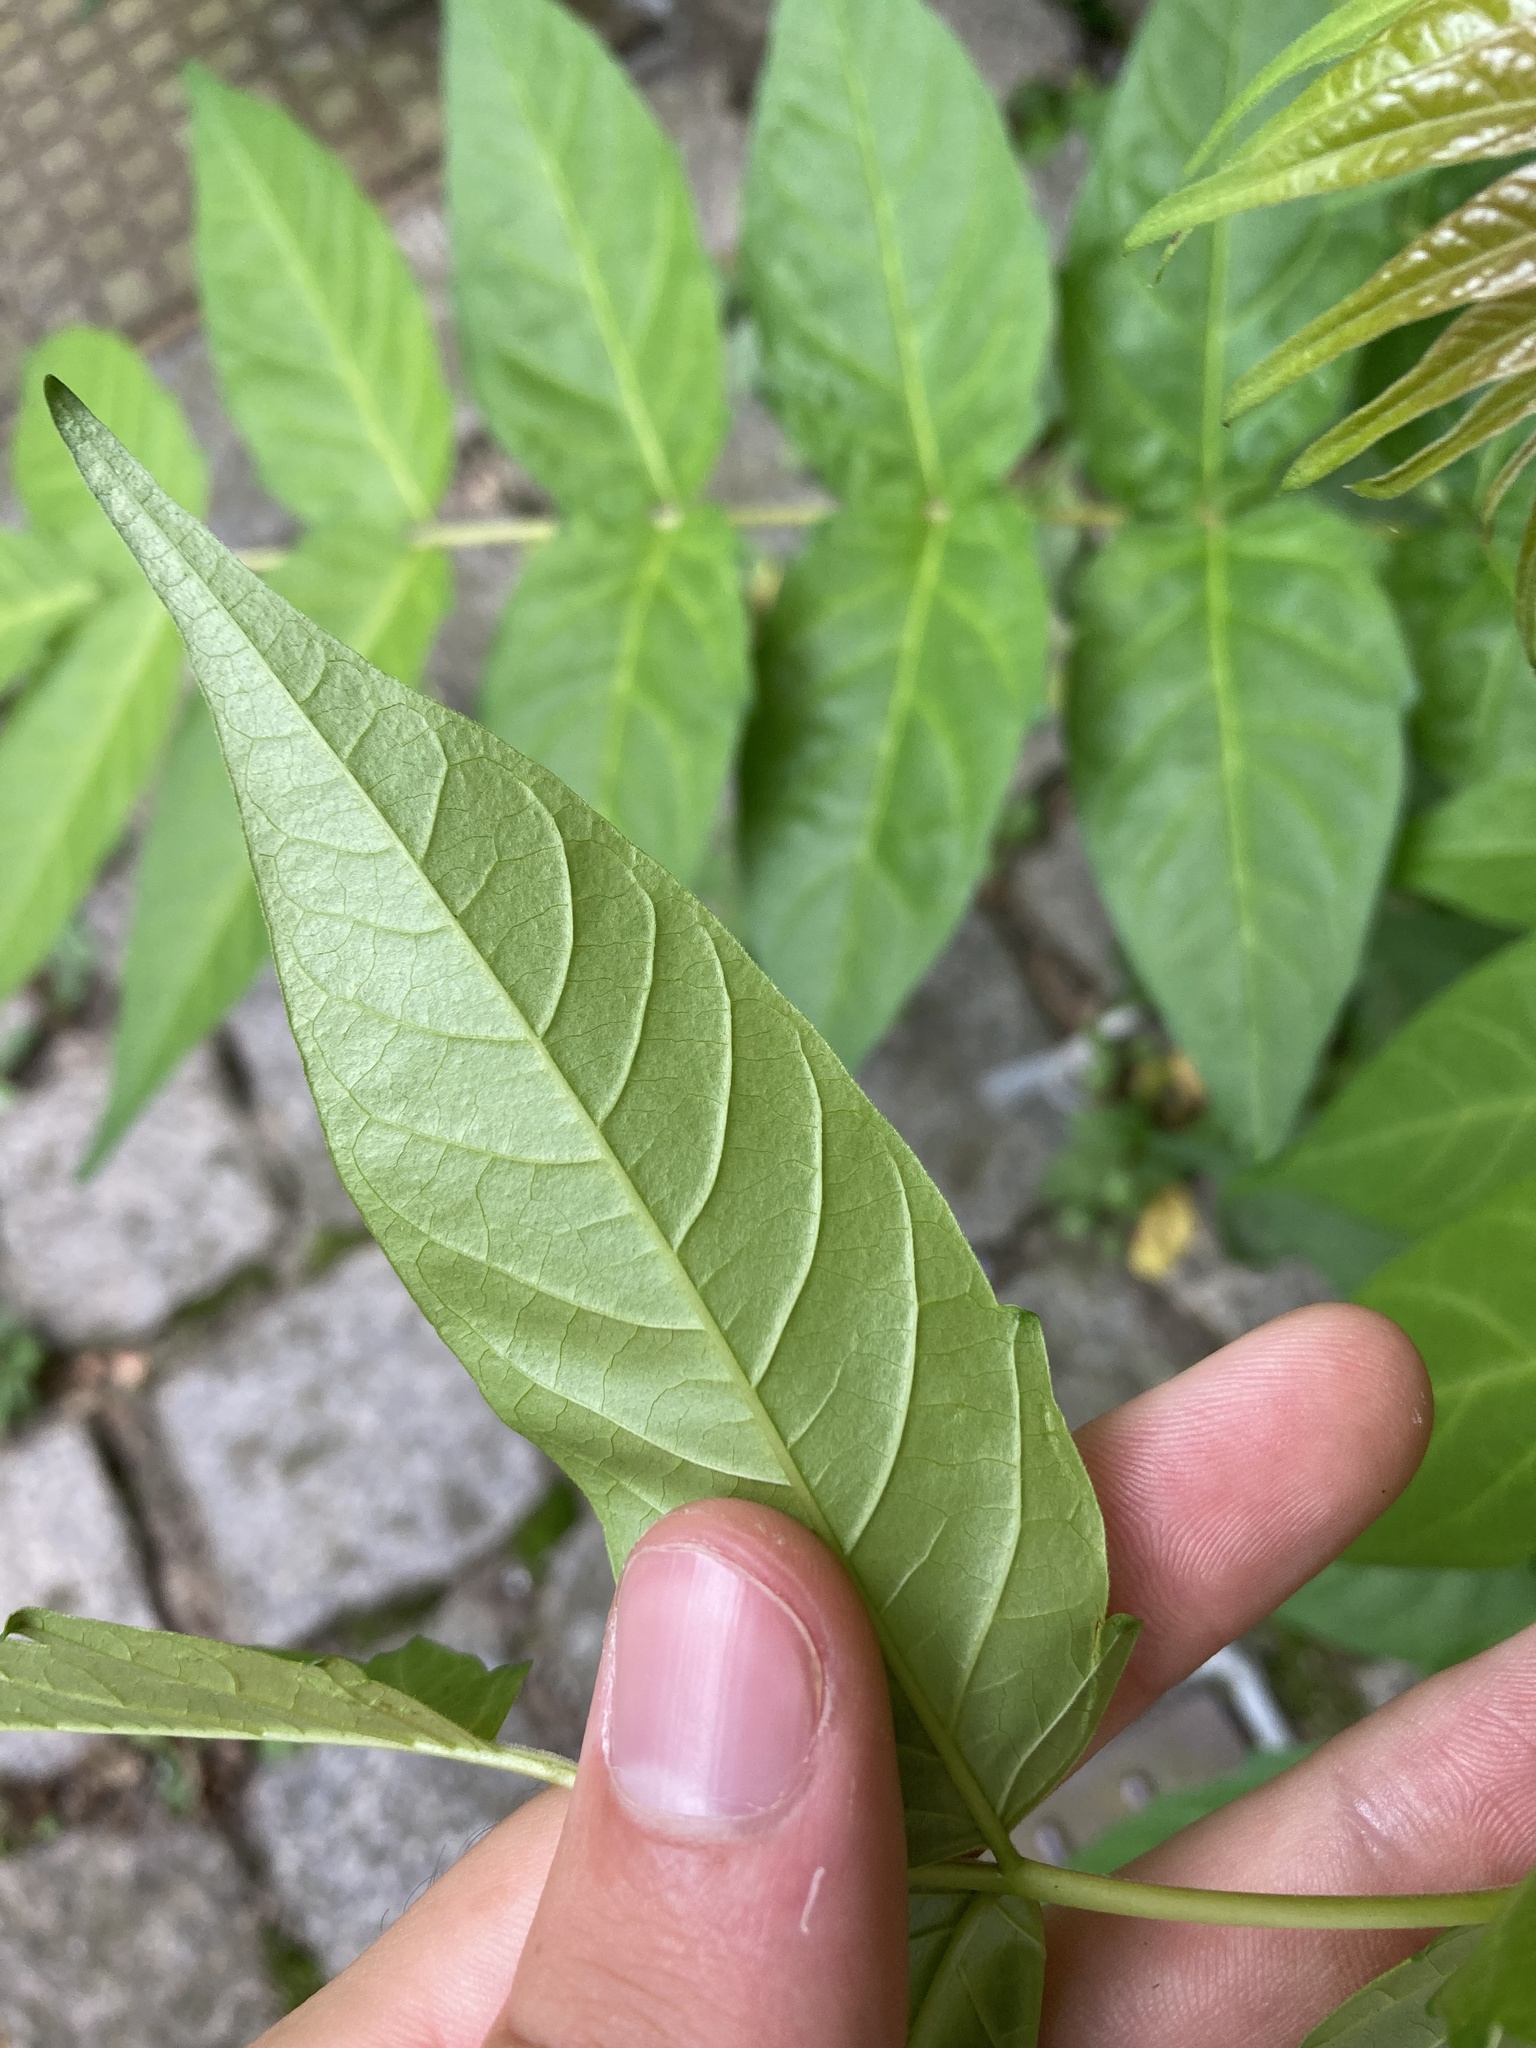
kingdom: Plantae
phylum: Tracheophyta
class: Magnoliopsida
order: Lamiales
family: Oleaceae
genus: Fraxinus
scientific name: Fraxinus excelsior
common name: European ash
